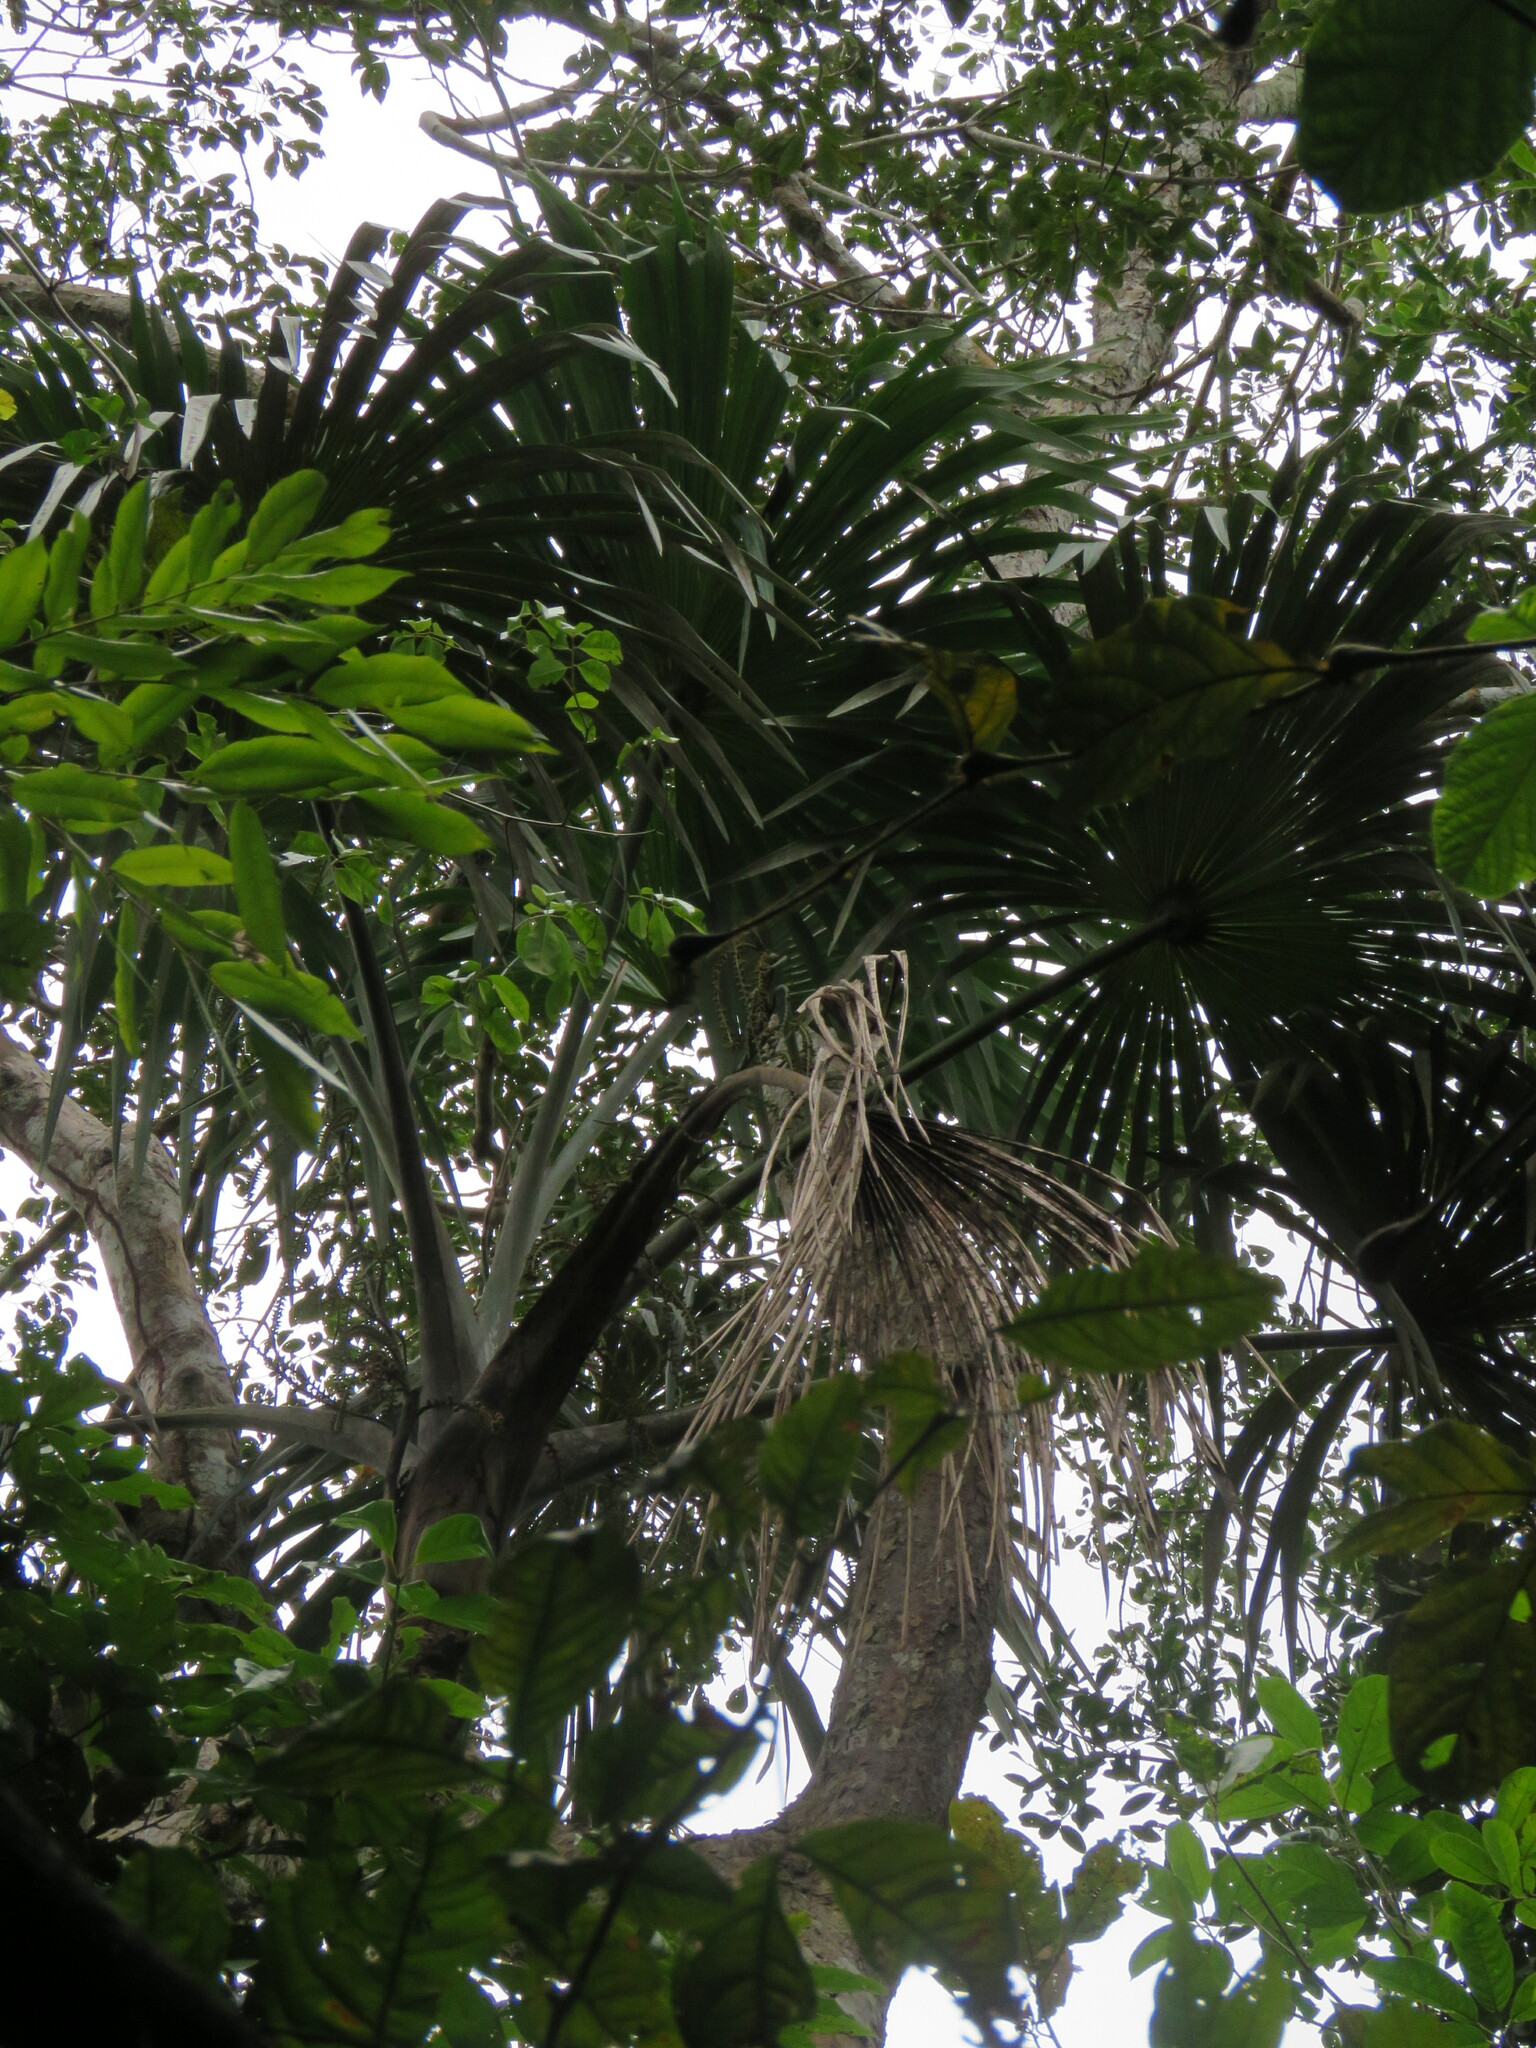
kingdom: Plantae
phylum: Tracheophyta
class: Liliopsida
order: Arecales
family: Arecaceae
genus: Mauritiella
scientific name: Mauritiella armata
